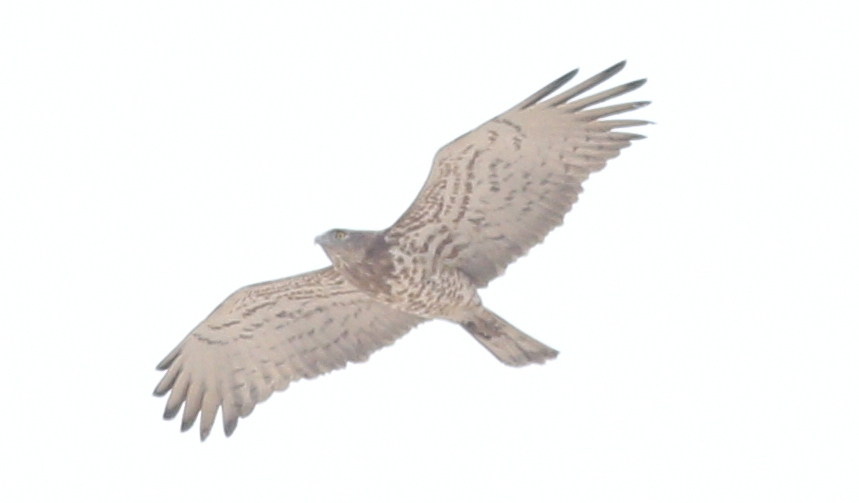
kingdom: Animalia
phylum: Chordata
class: Aves
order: Accipitriformes
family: Accipitridae
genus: Circaetus
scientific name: Circaetus gallicus
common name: Short-toed snake eagle
